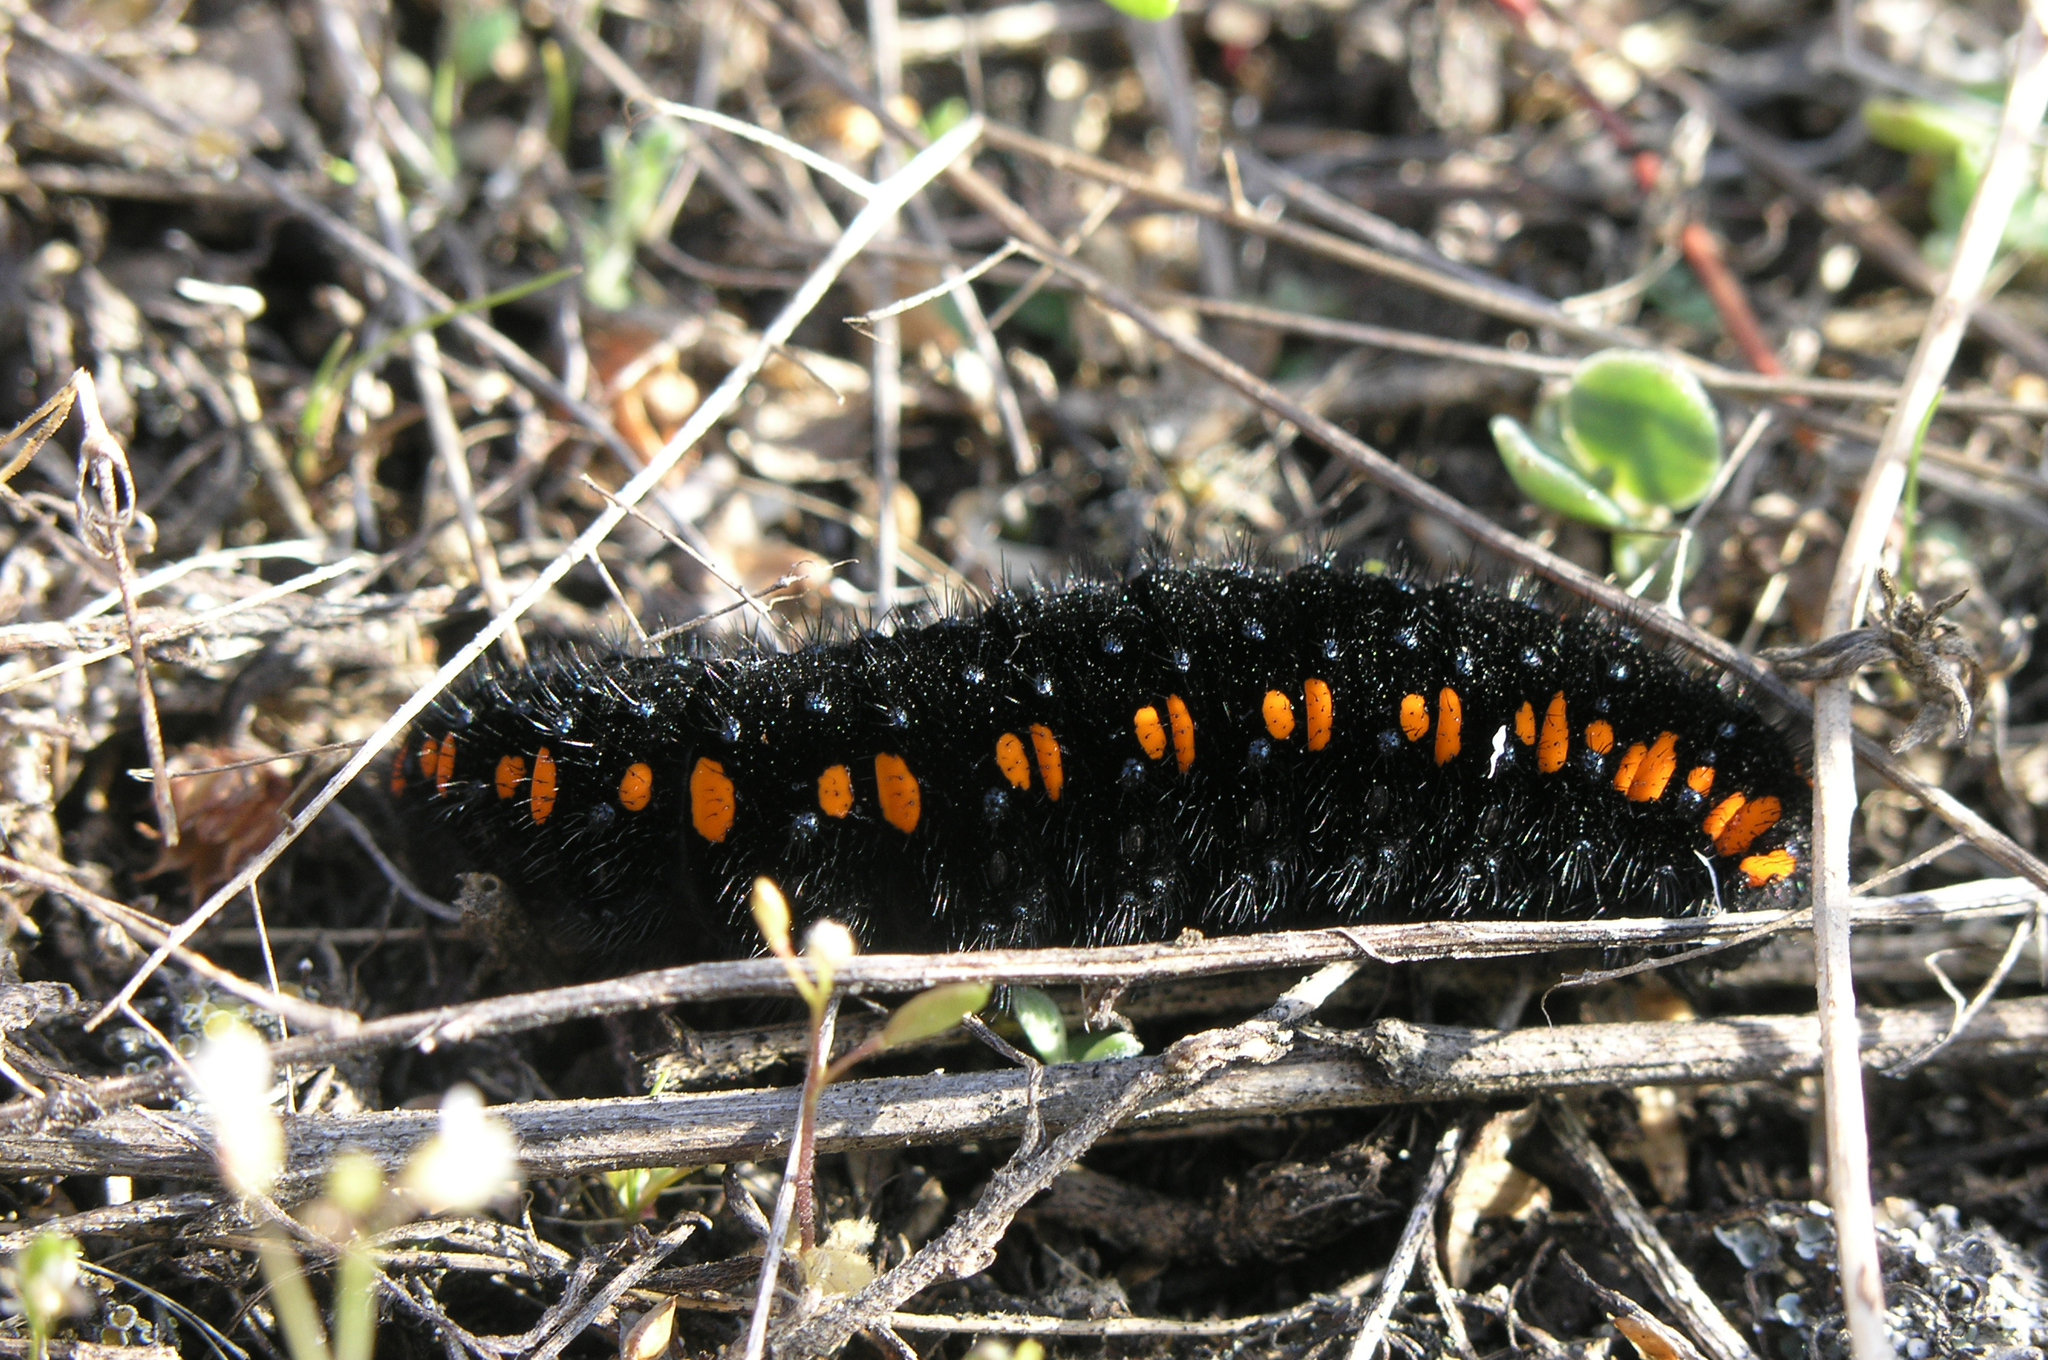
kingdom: Animalia
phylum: Arthropoda
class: Insecta
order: Lepidoptera
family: Papilionidae
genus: Parnassius
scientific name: Parnassius apollo
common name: Apollo
